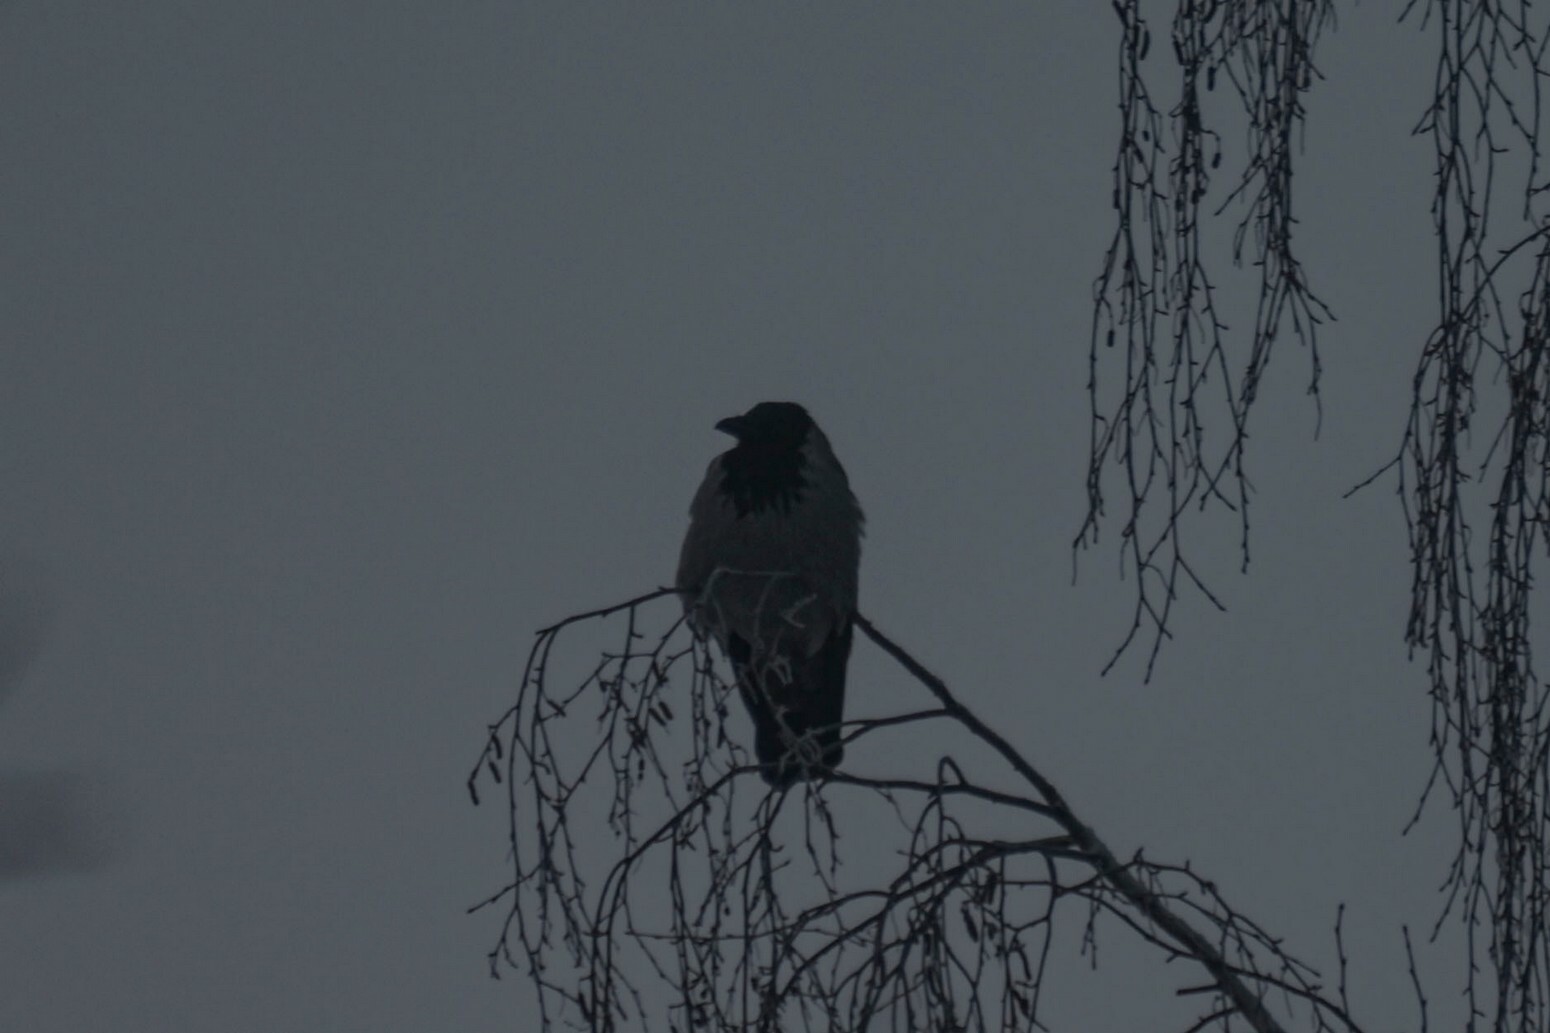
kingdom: Animalia
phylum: Chordata
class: Aves
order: Passeriformes
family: Corvidae
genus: Corvus
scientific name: Corvus cornix
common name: Hooded crow
